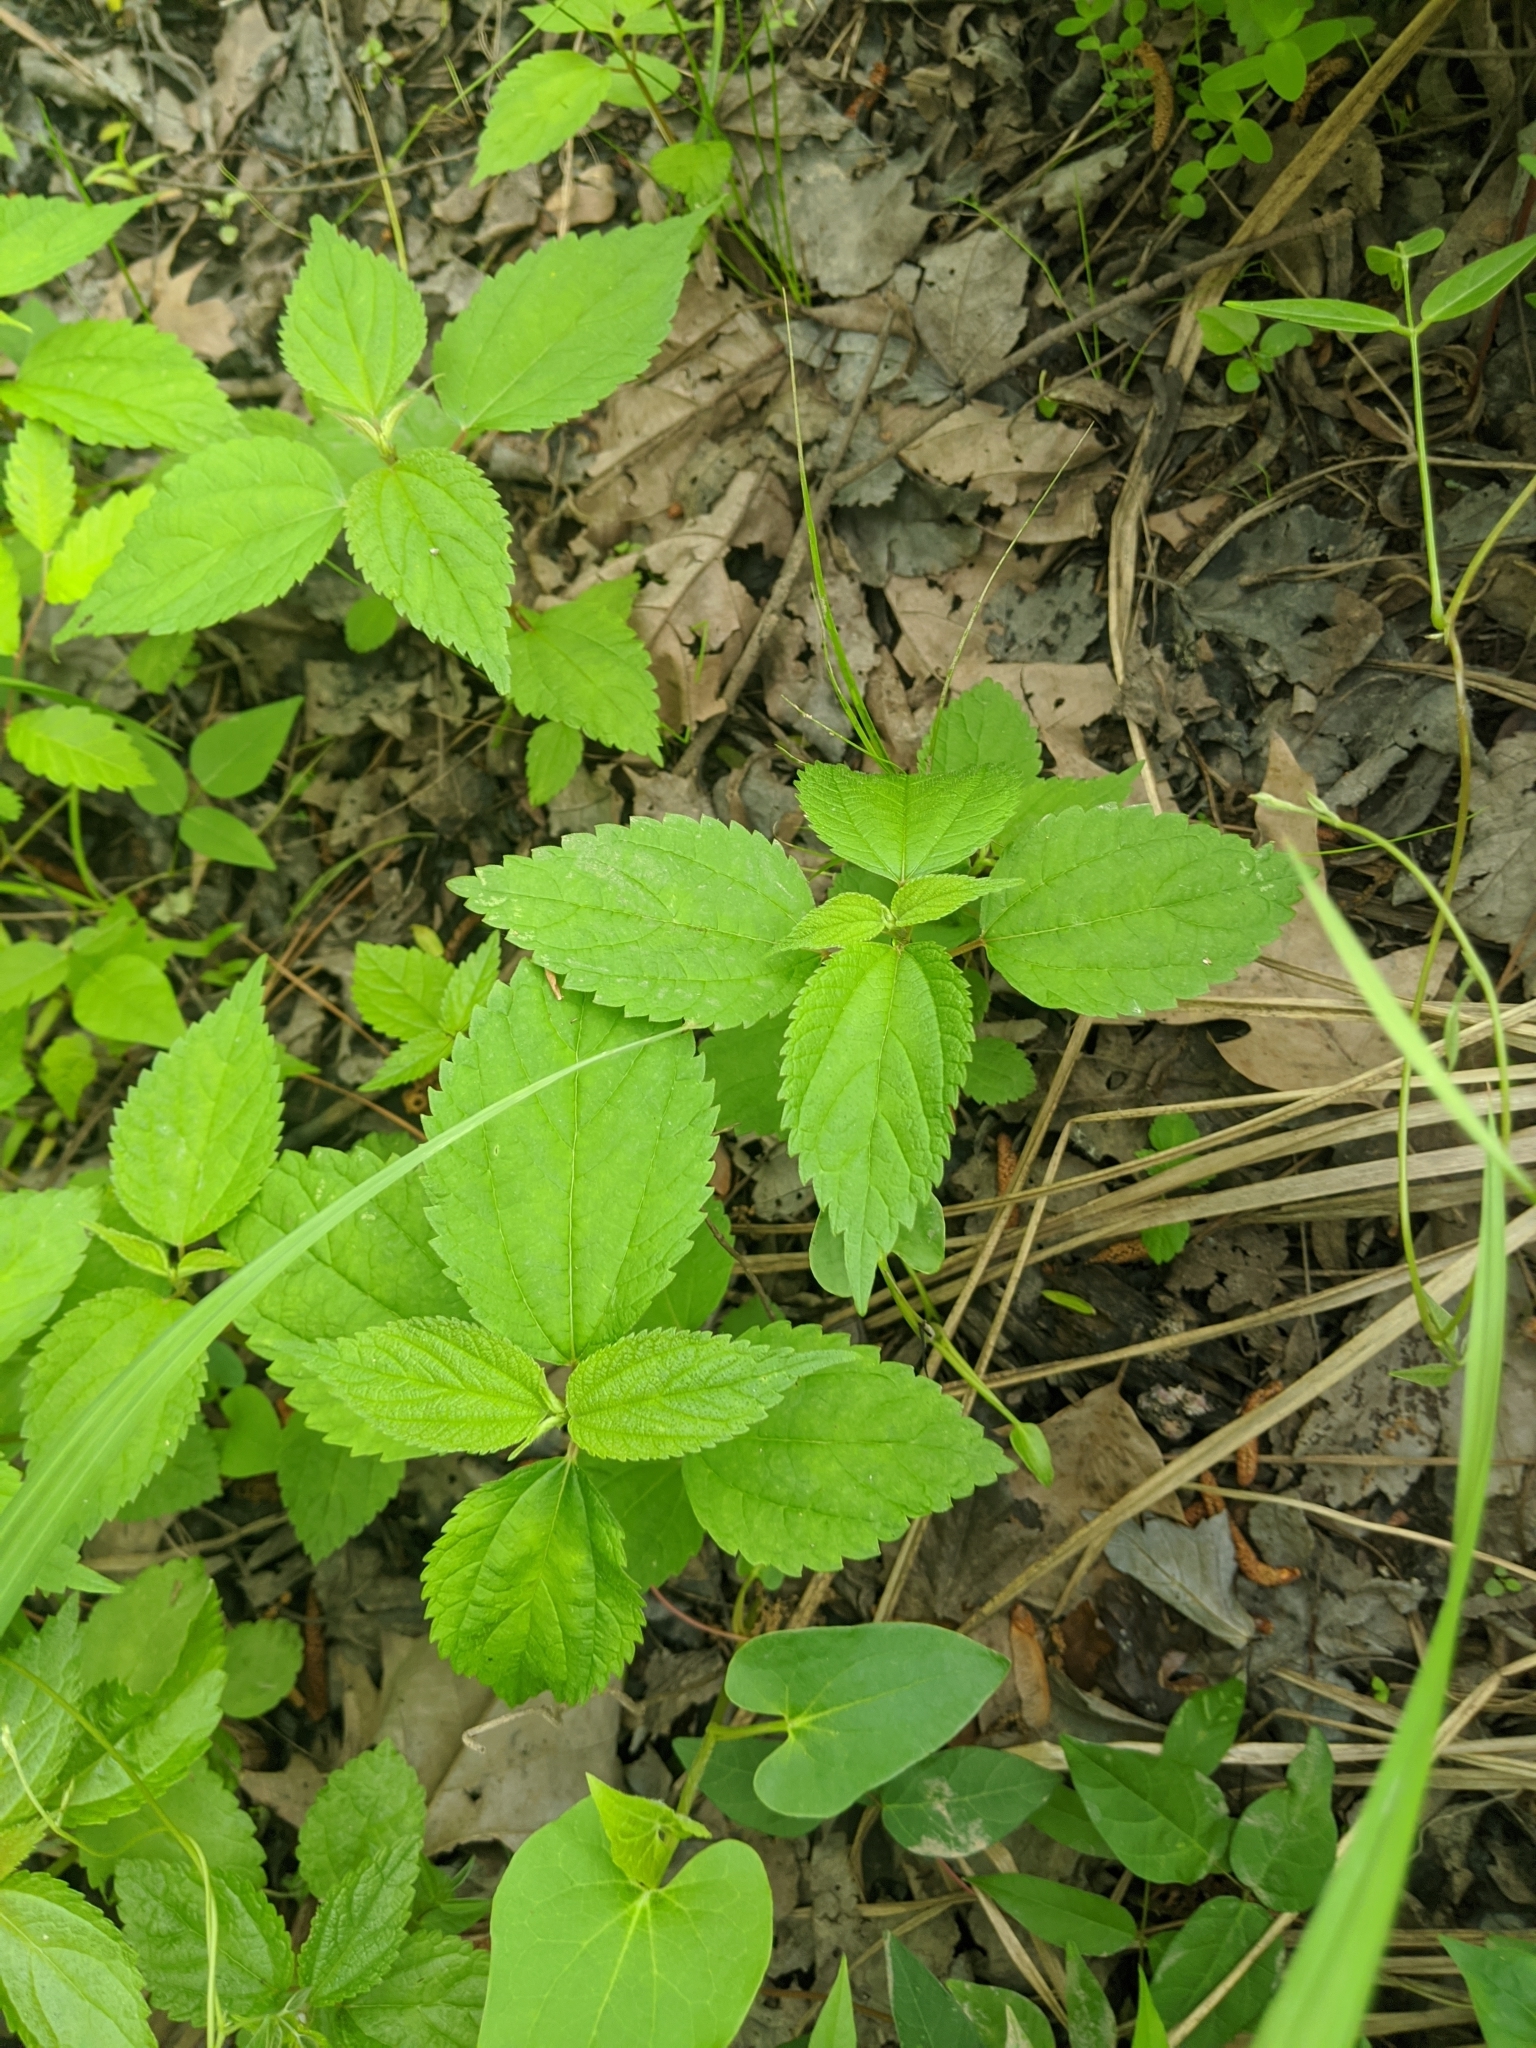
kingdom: Plantae
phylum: Tracheophyta
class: Magnoliopsida
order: Rosales
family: Urticaceae
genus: Boehmeria
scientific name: Boehmeria cylindrica
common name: Bog-hemp
